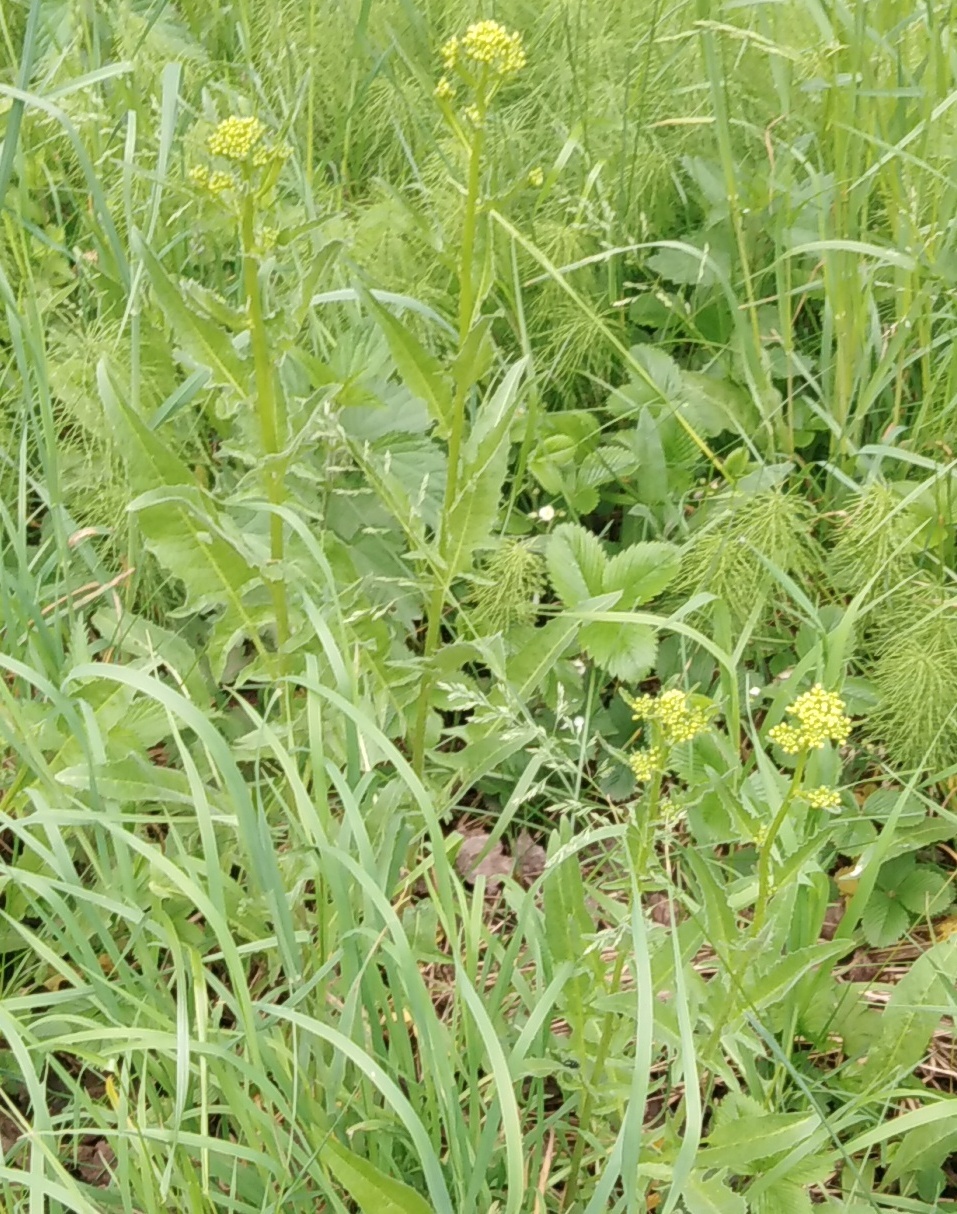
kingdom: Plantae
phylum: Tracheophyta
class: Magnoliopsida
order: Brassicales
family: Brassicaceae
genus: Bunias
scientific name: Bunias orientalis
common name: Warty-cabbage
